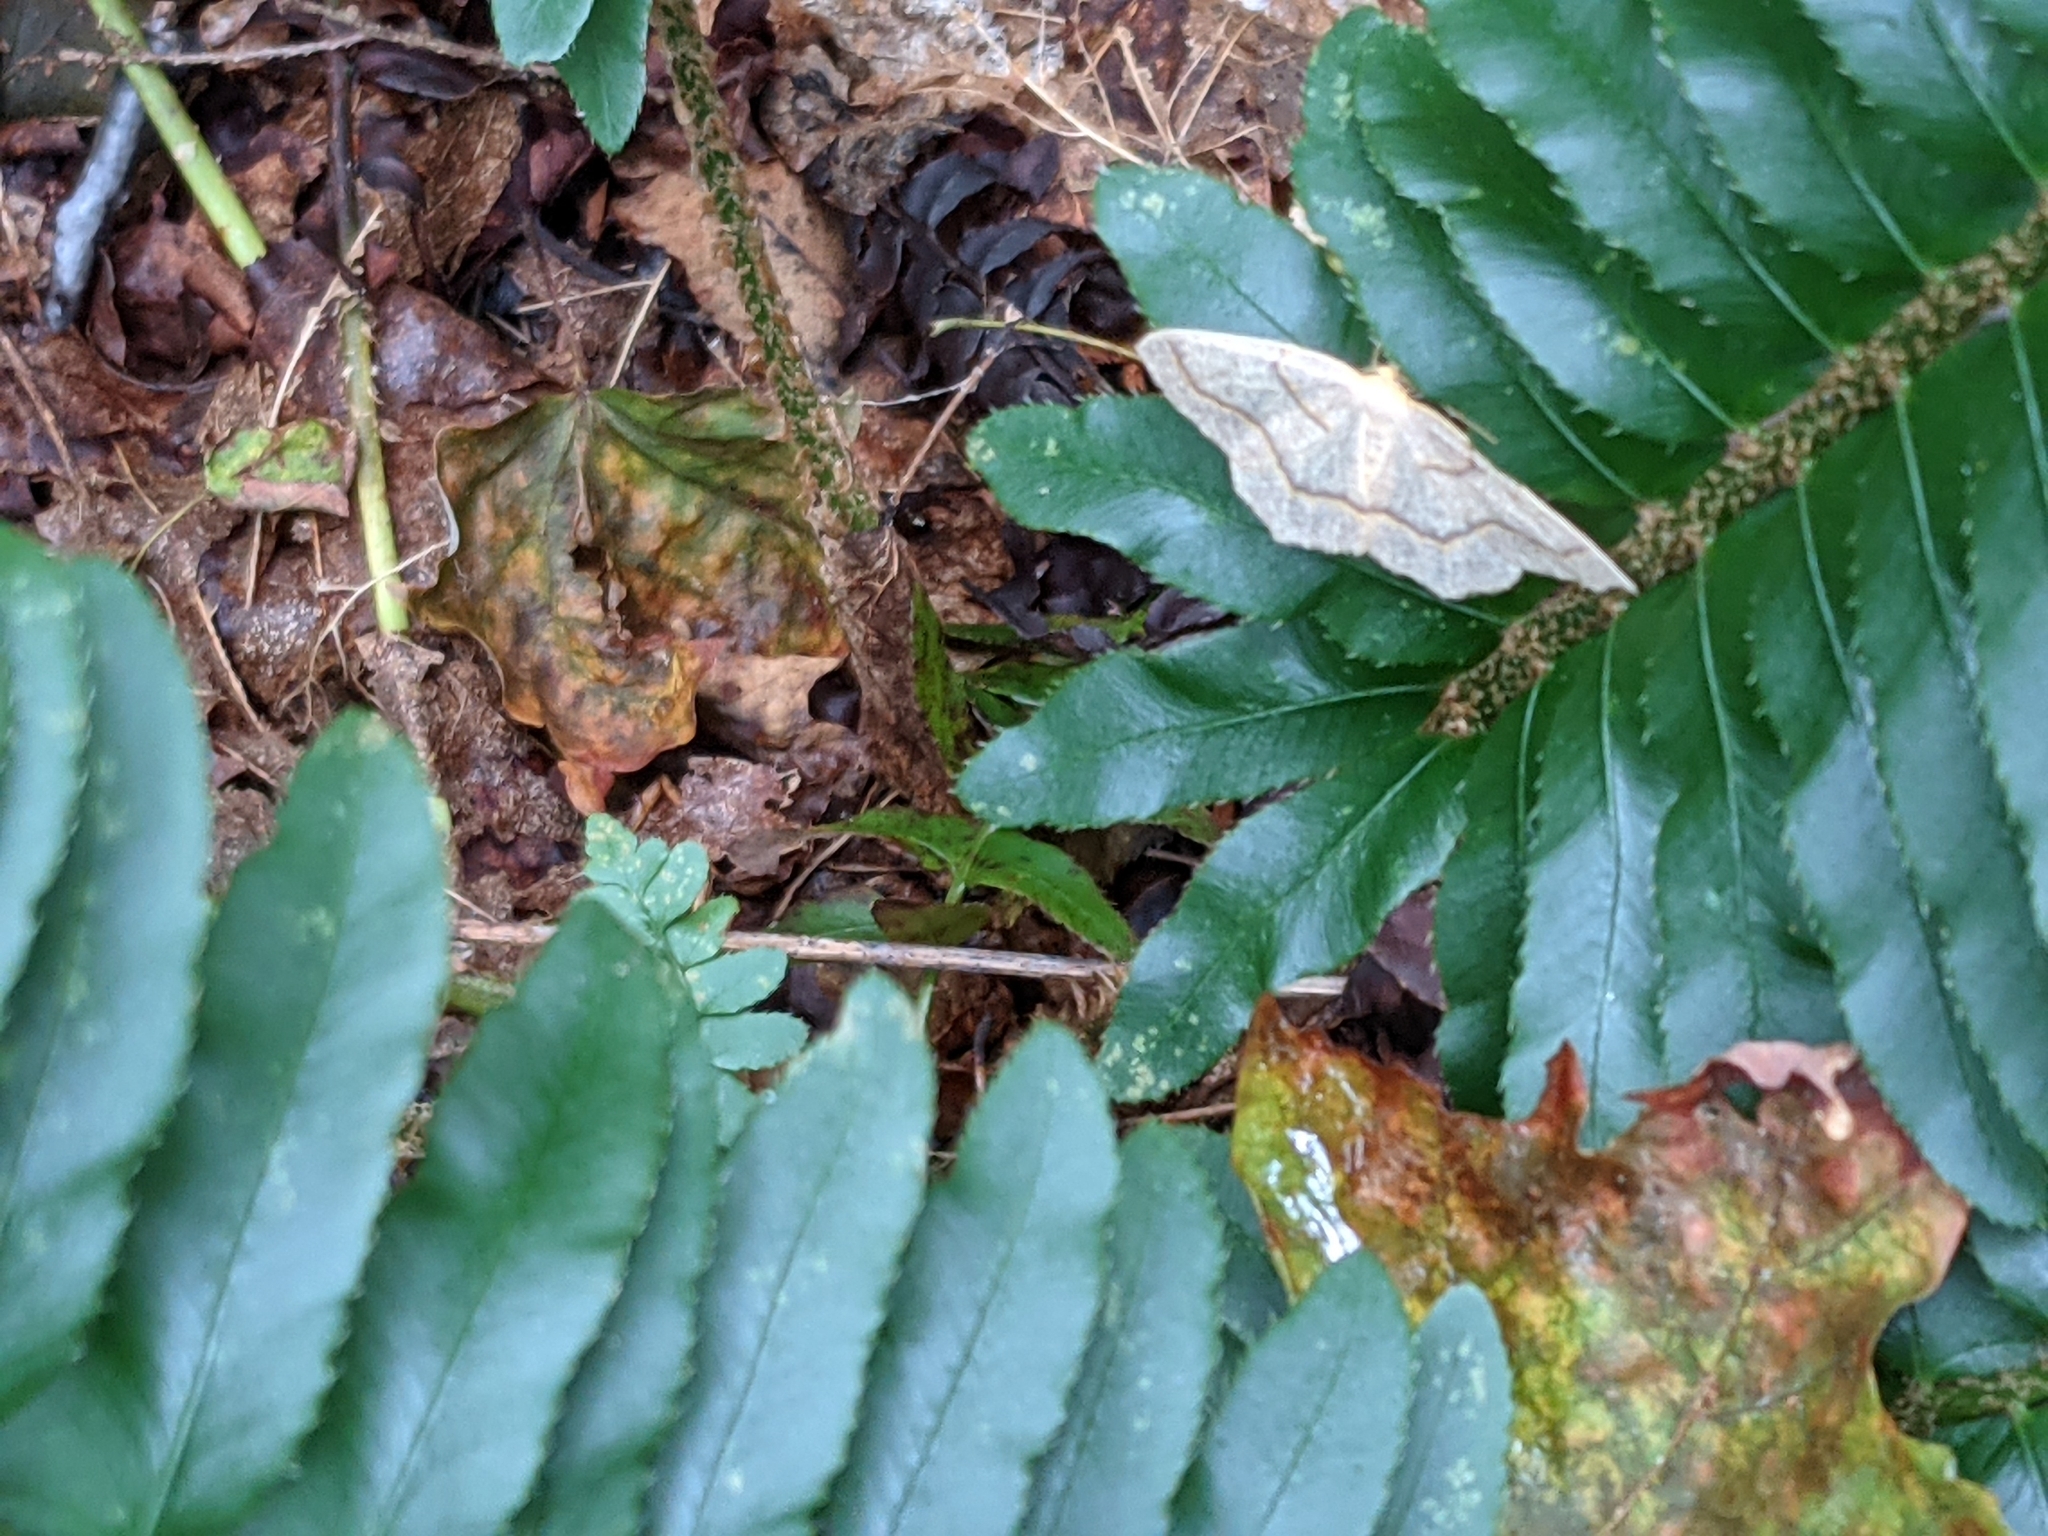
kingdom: Animalia
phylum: Arthropoda
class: Insecta
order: Lepidoptera
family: Geometridae
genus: Lambdina
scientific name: Lambdina fiscellaria
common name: Hemlock looper
